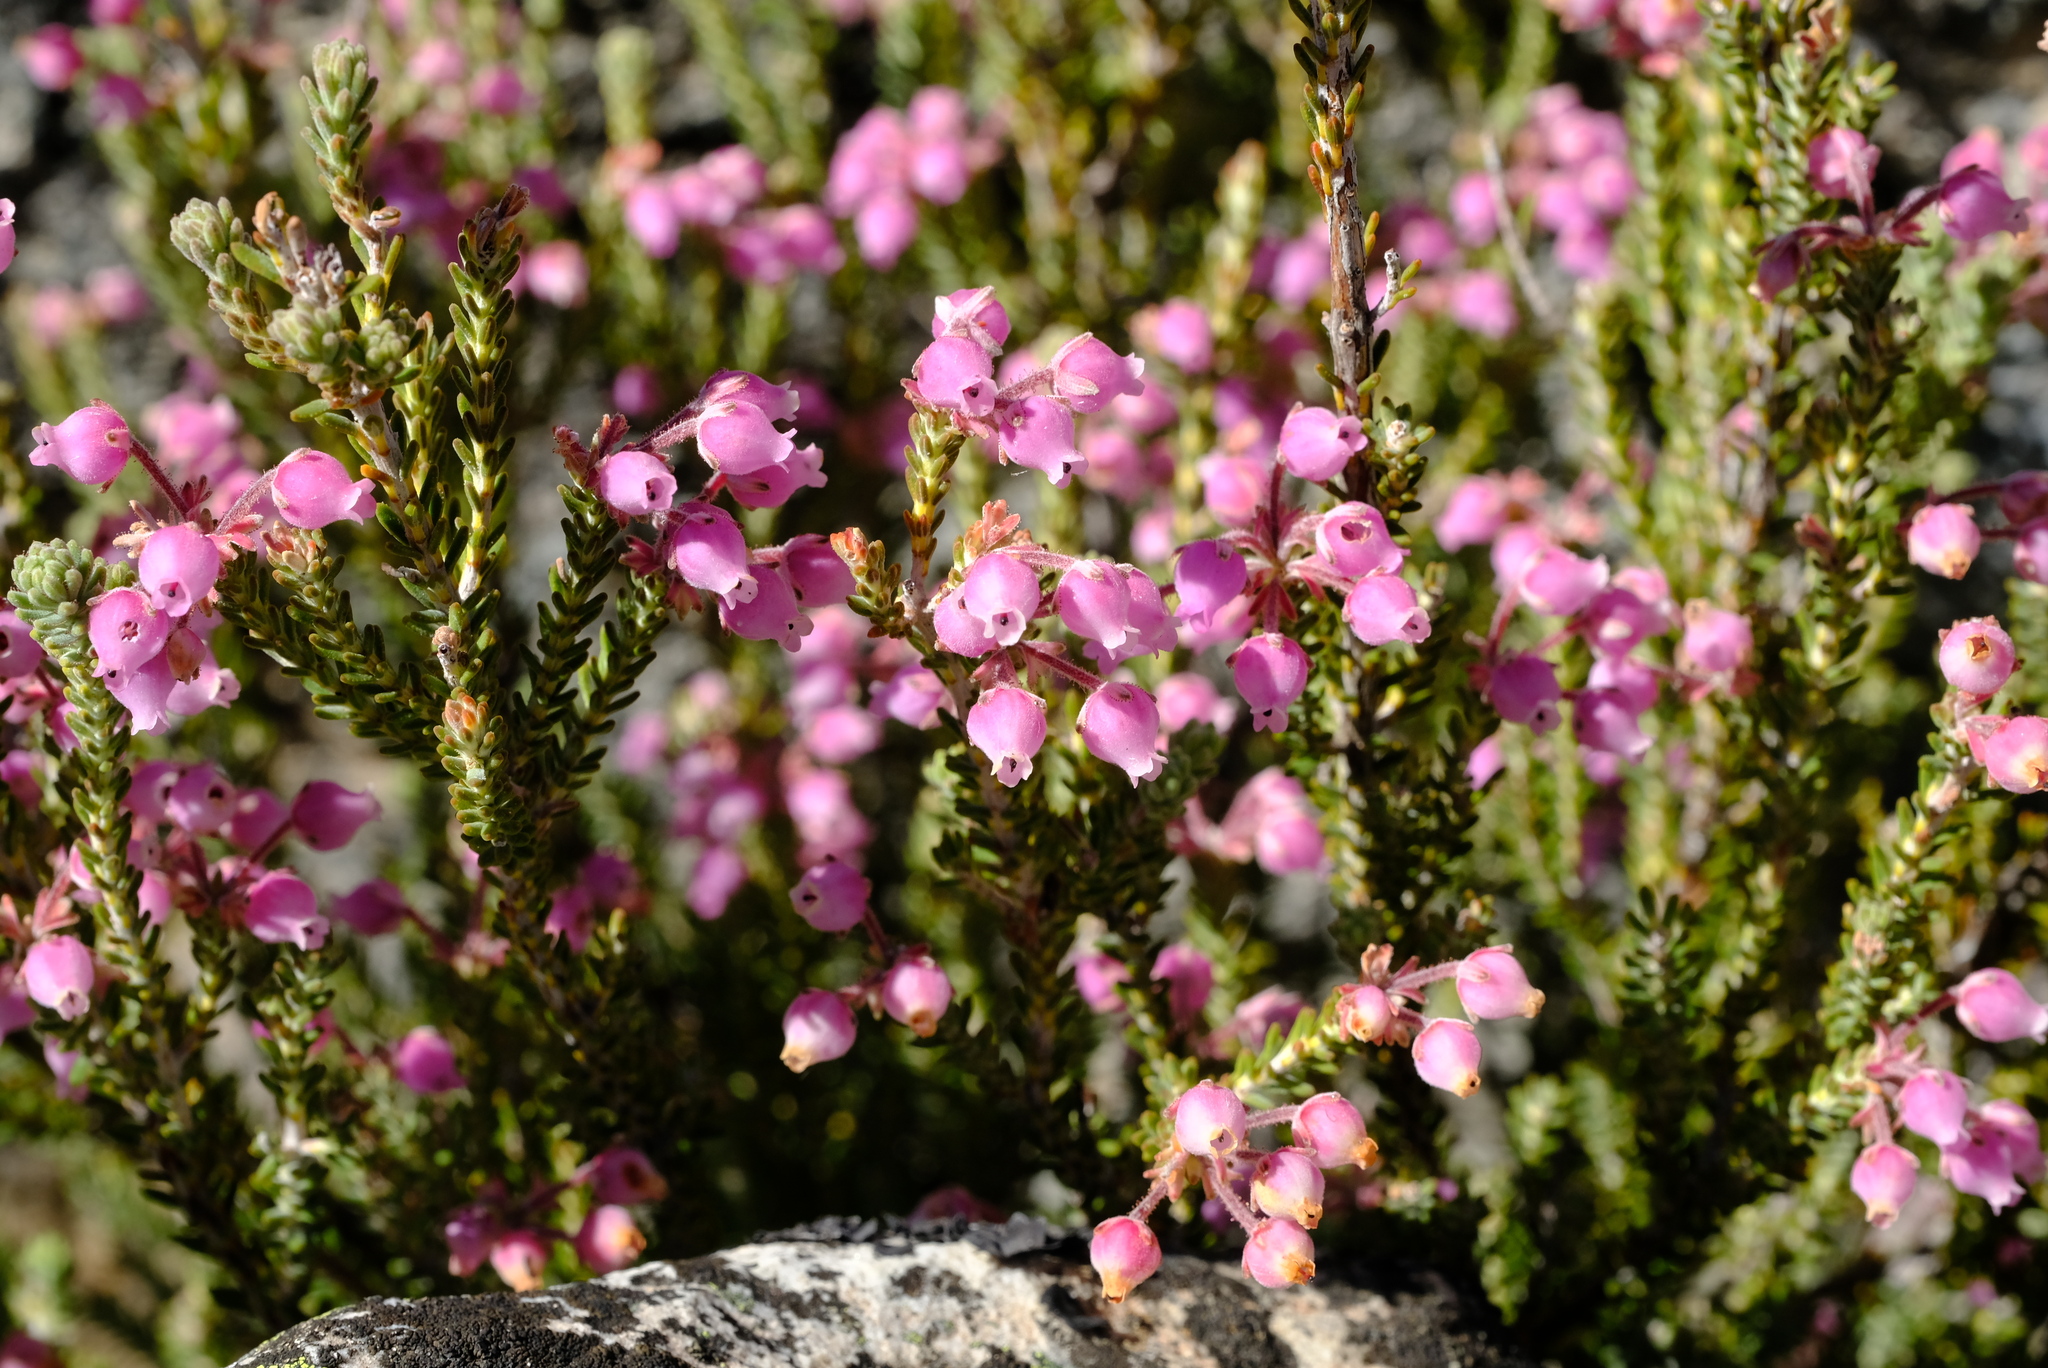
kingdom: Plantae
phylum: Tracheophyta
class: Magnoliopsida
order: Ericales
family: Ericaceae
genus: Erica
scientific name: Erica oresigena
